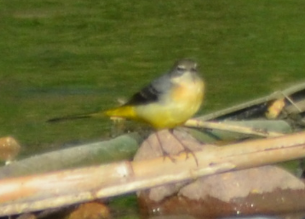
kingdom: Animalia
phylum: Chordata
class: Aves
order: Passeriformes
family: Motacillidae
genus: Motacilla
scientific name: Motacilla cinerea
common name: Grey wagtail
